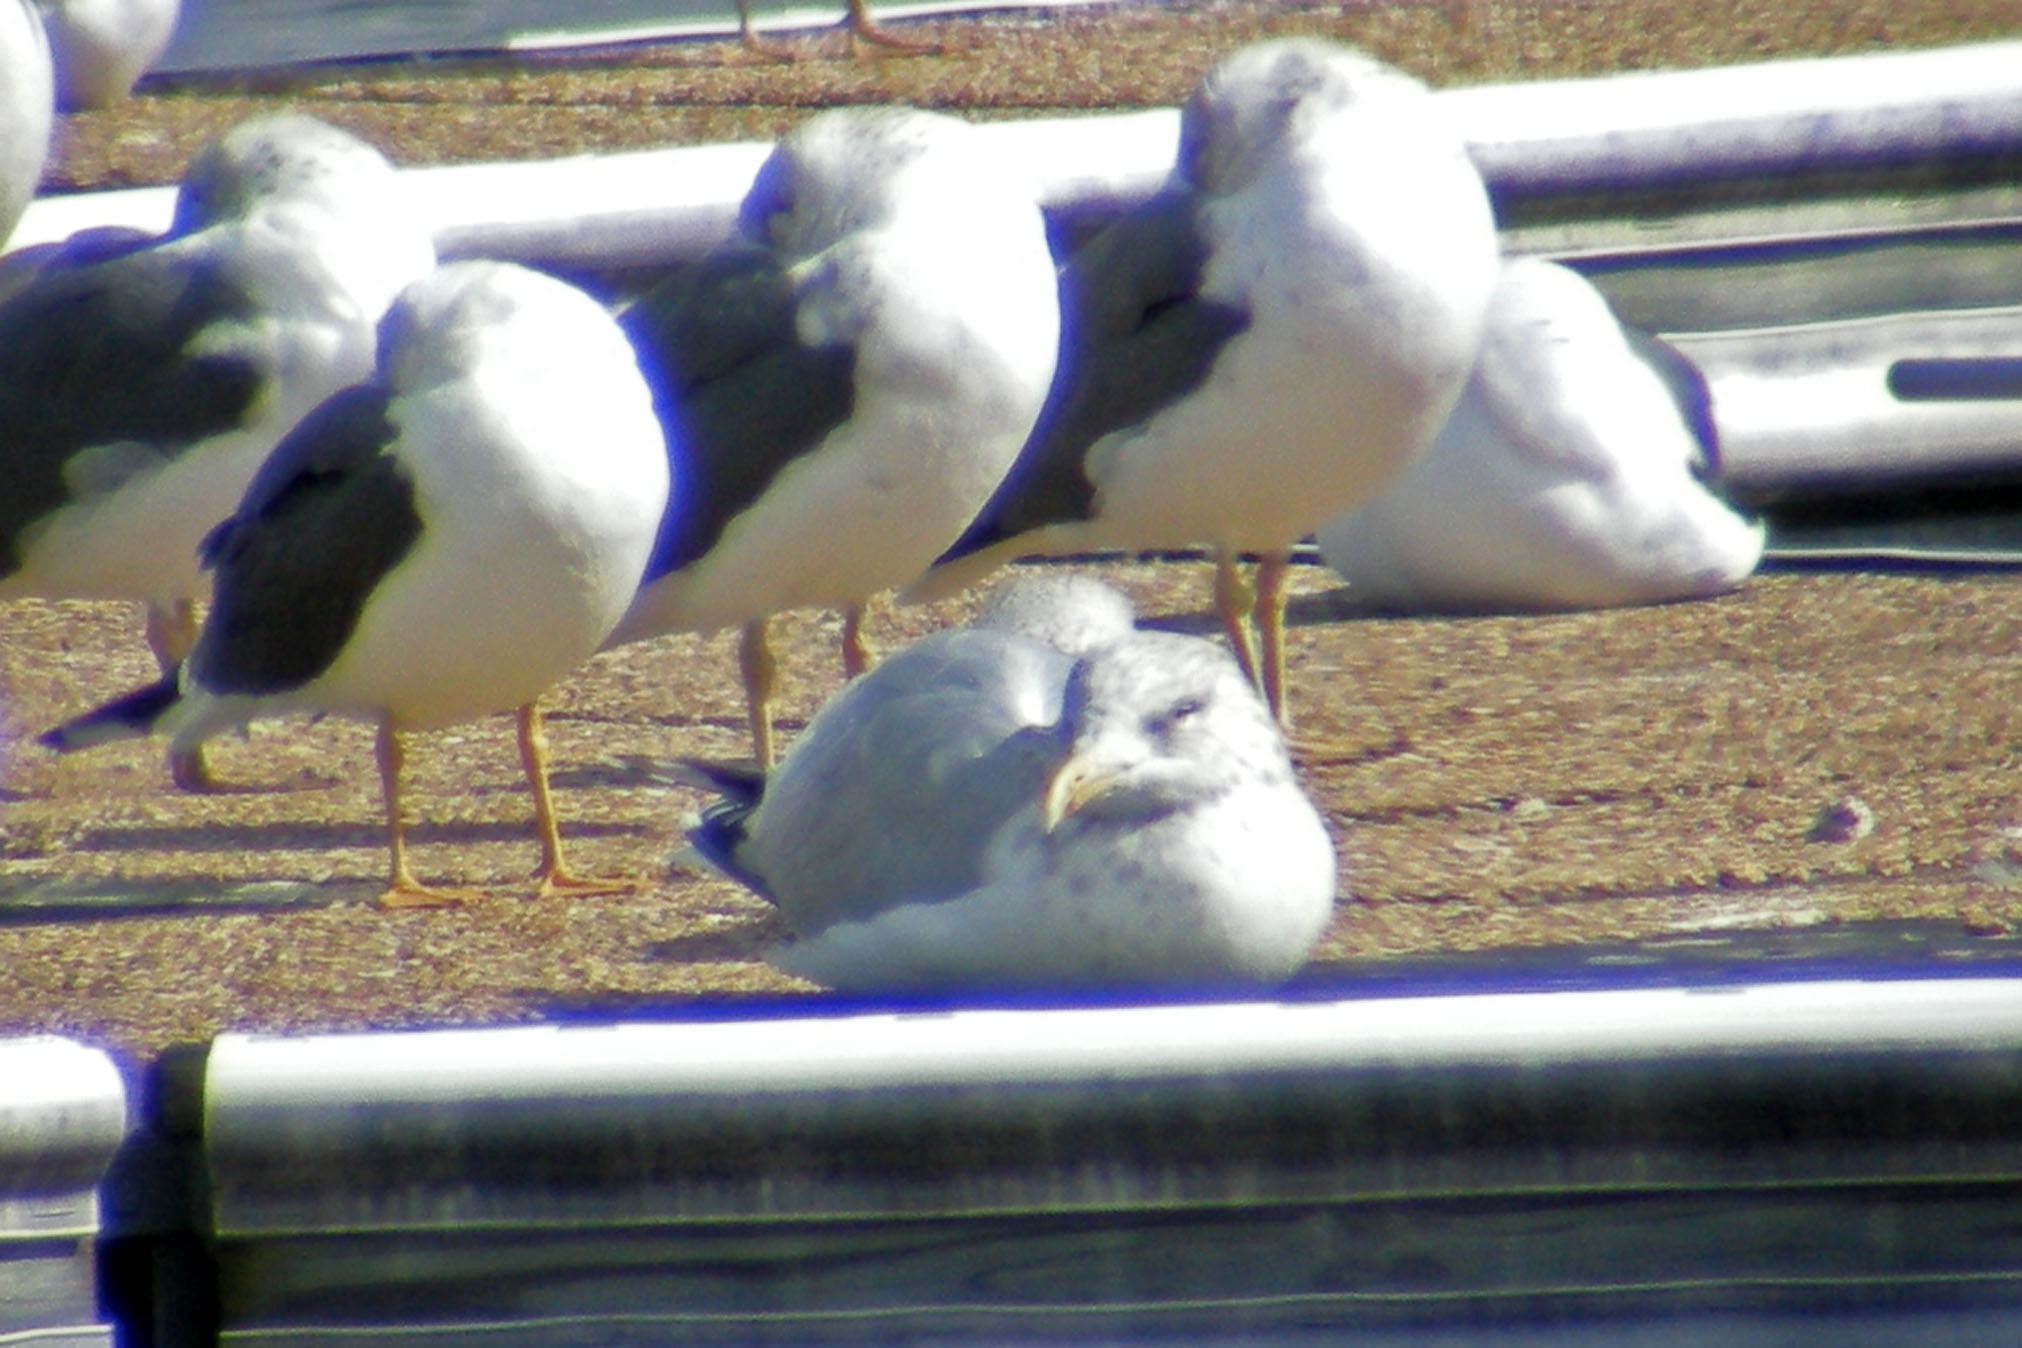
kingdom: Animalia
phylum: Chordata
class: Aves
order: Charadriiformes
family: Laridae
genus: Larus
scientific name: Larus argentatus
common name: Herring gull
